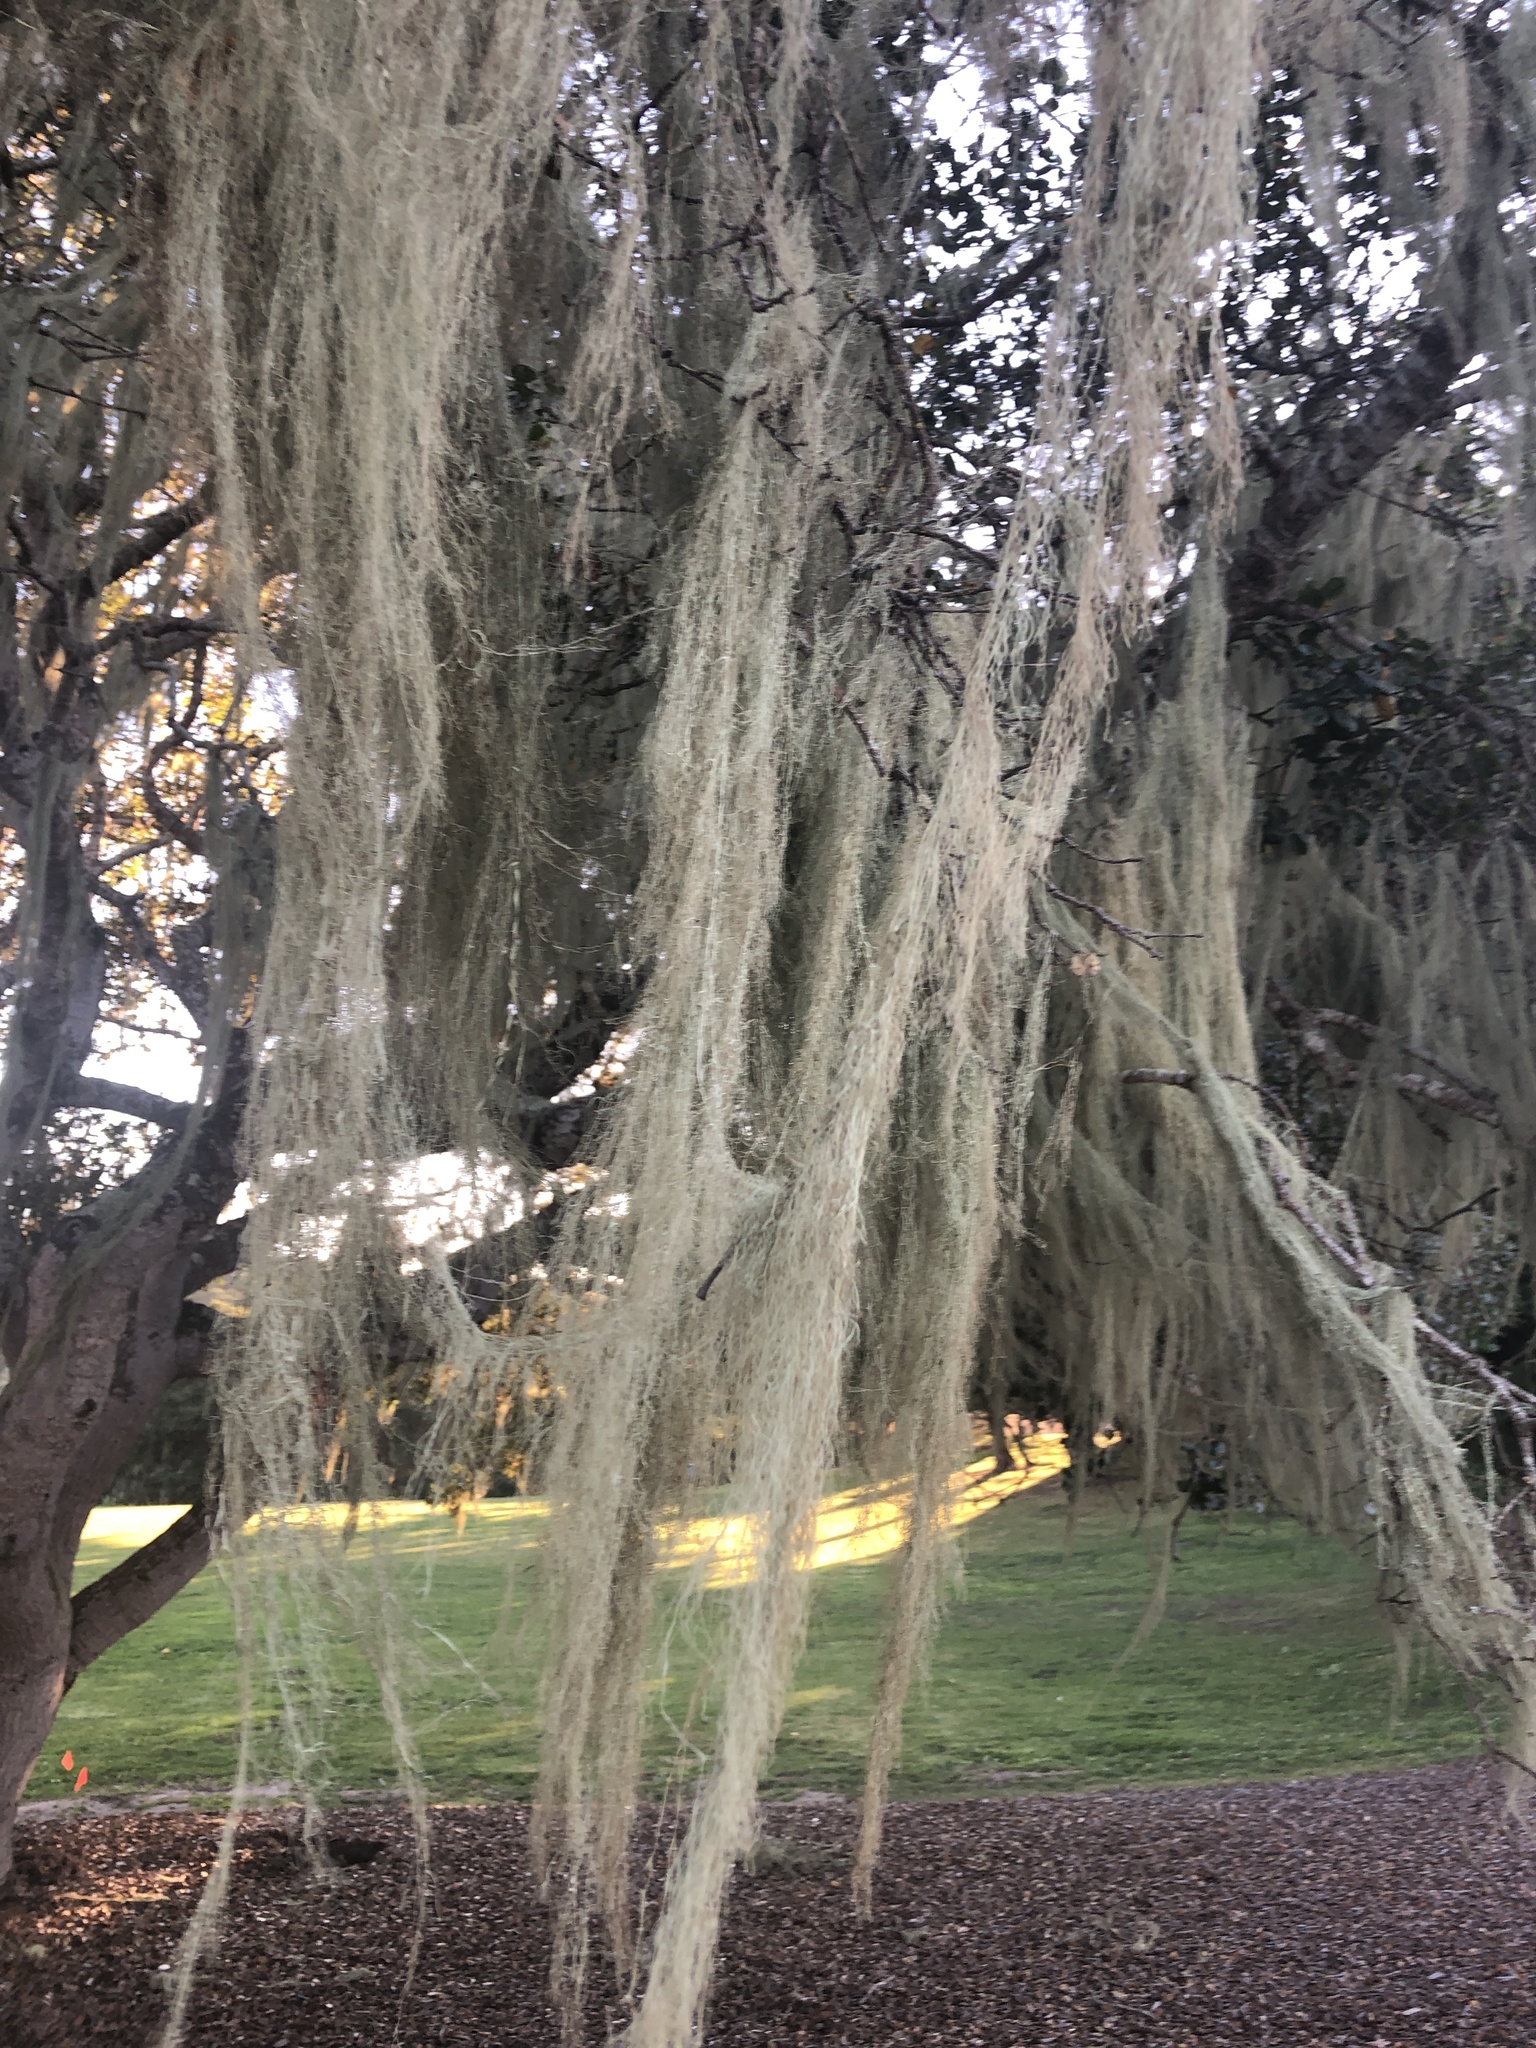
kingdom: Fungi
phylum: Ascomycota
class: Lecanoromycetes
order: Lecanorales
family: Ramalinaceae
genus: Ramalina
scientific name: Ramalina menziesii
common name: Lace lichen
